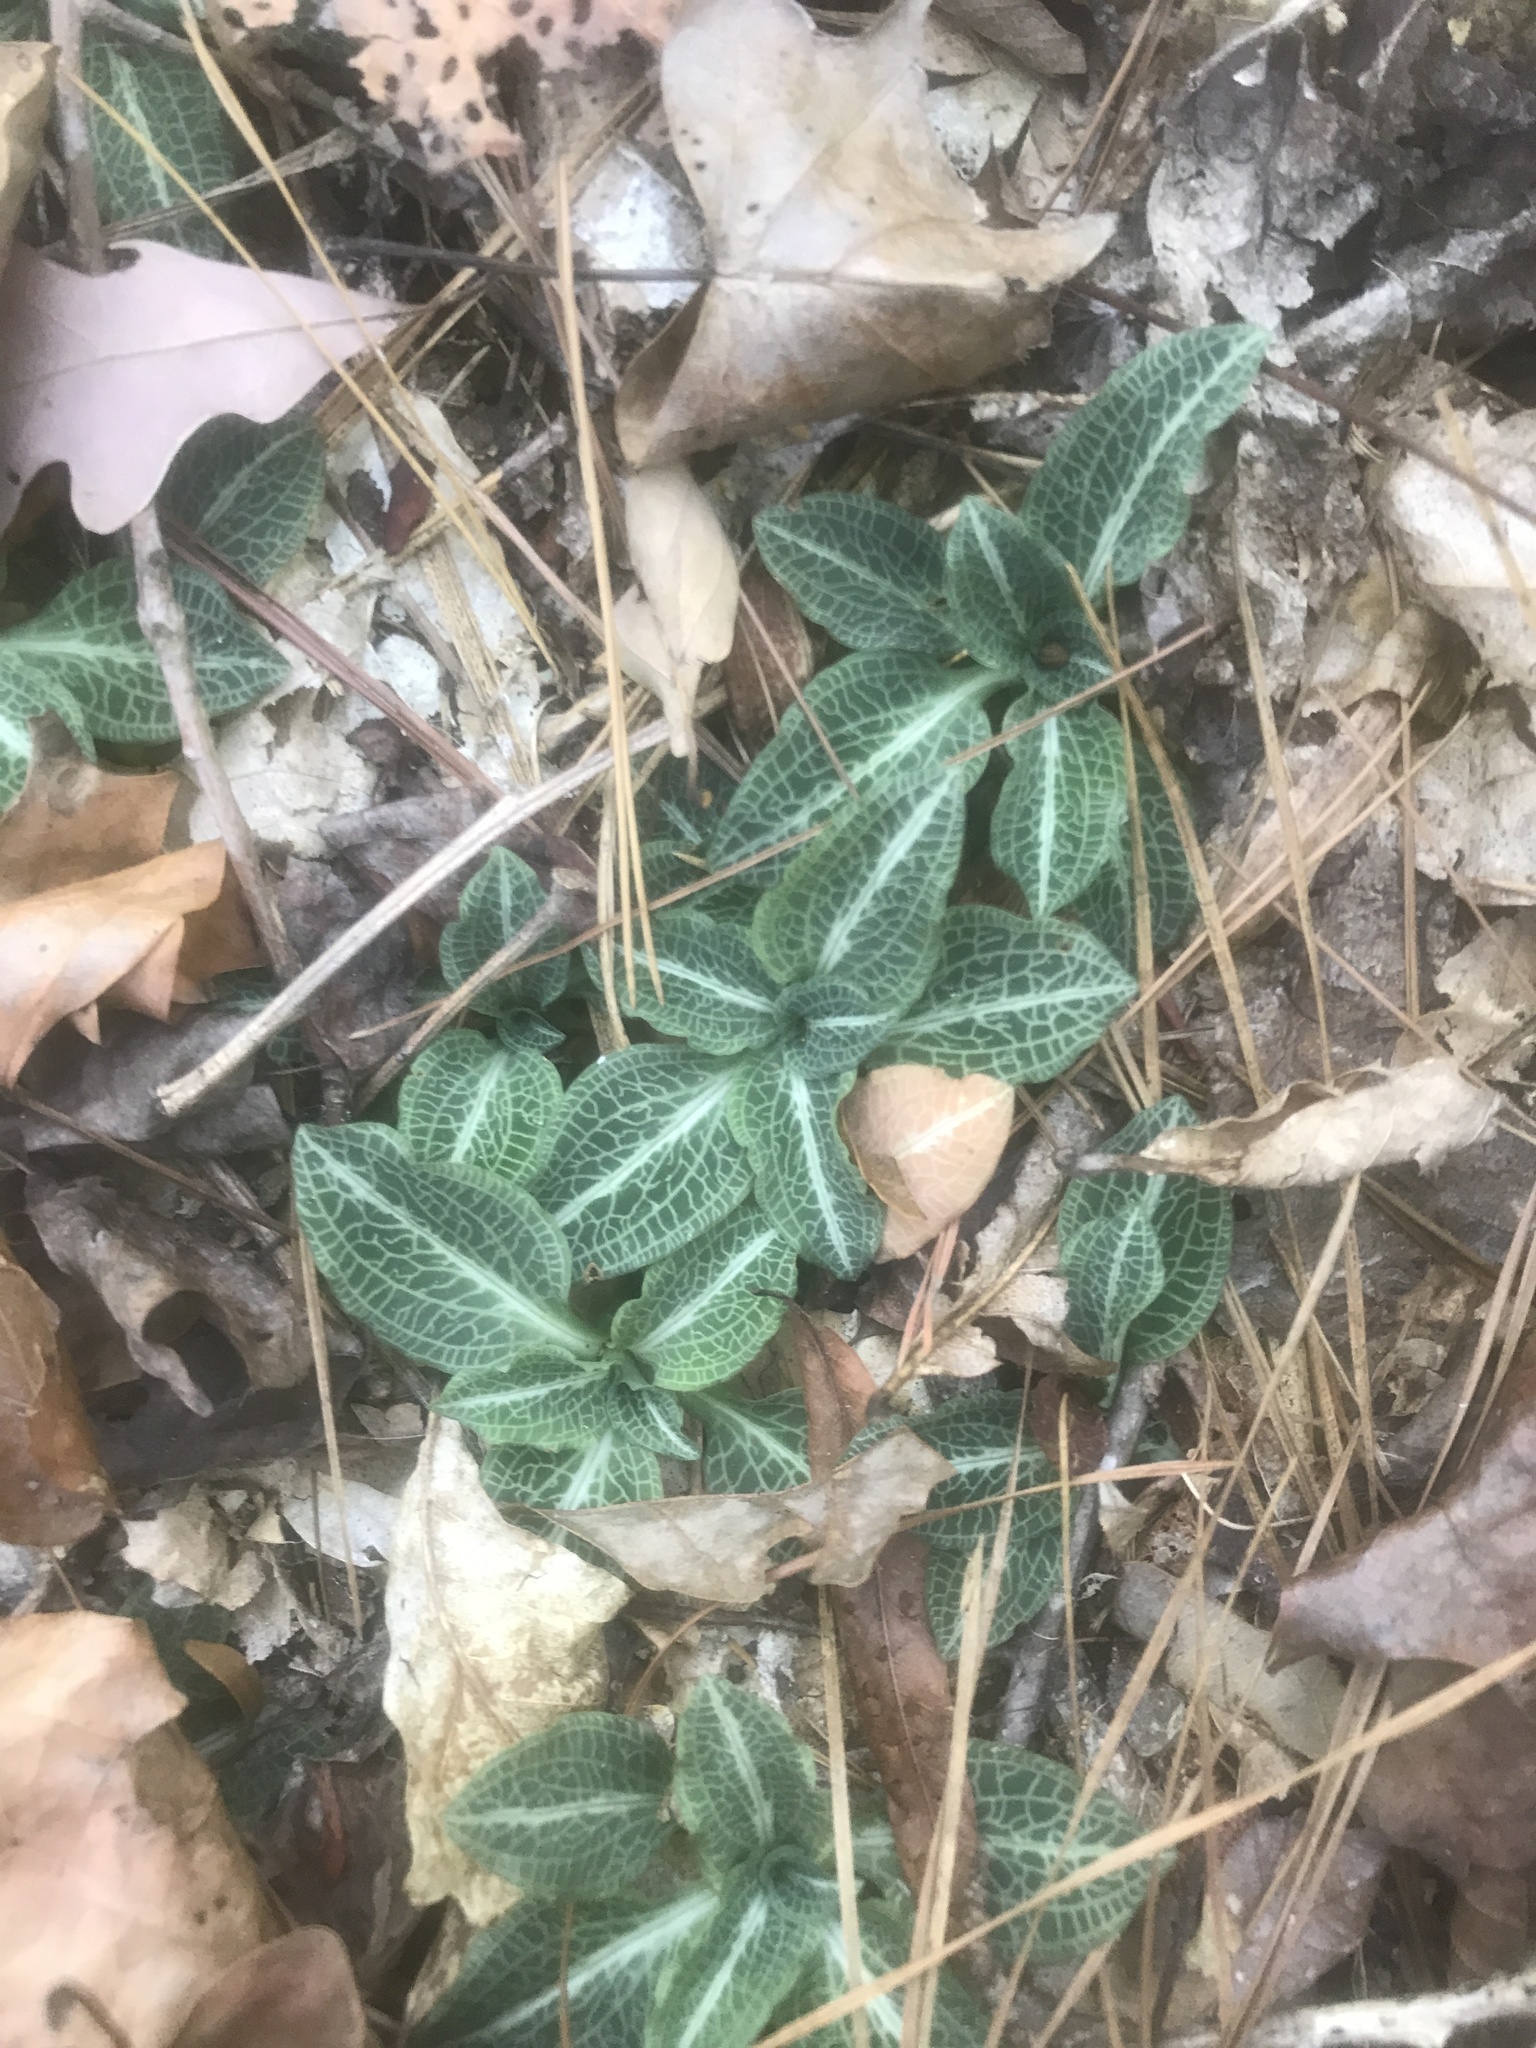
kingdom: Plantae
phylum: Tracheophyta
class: Liliopsida
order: Asparagales
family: Orchidaceae
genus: Goodyera
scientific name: Goodyera pubescens
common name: Downy rattlesnake-plantain
